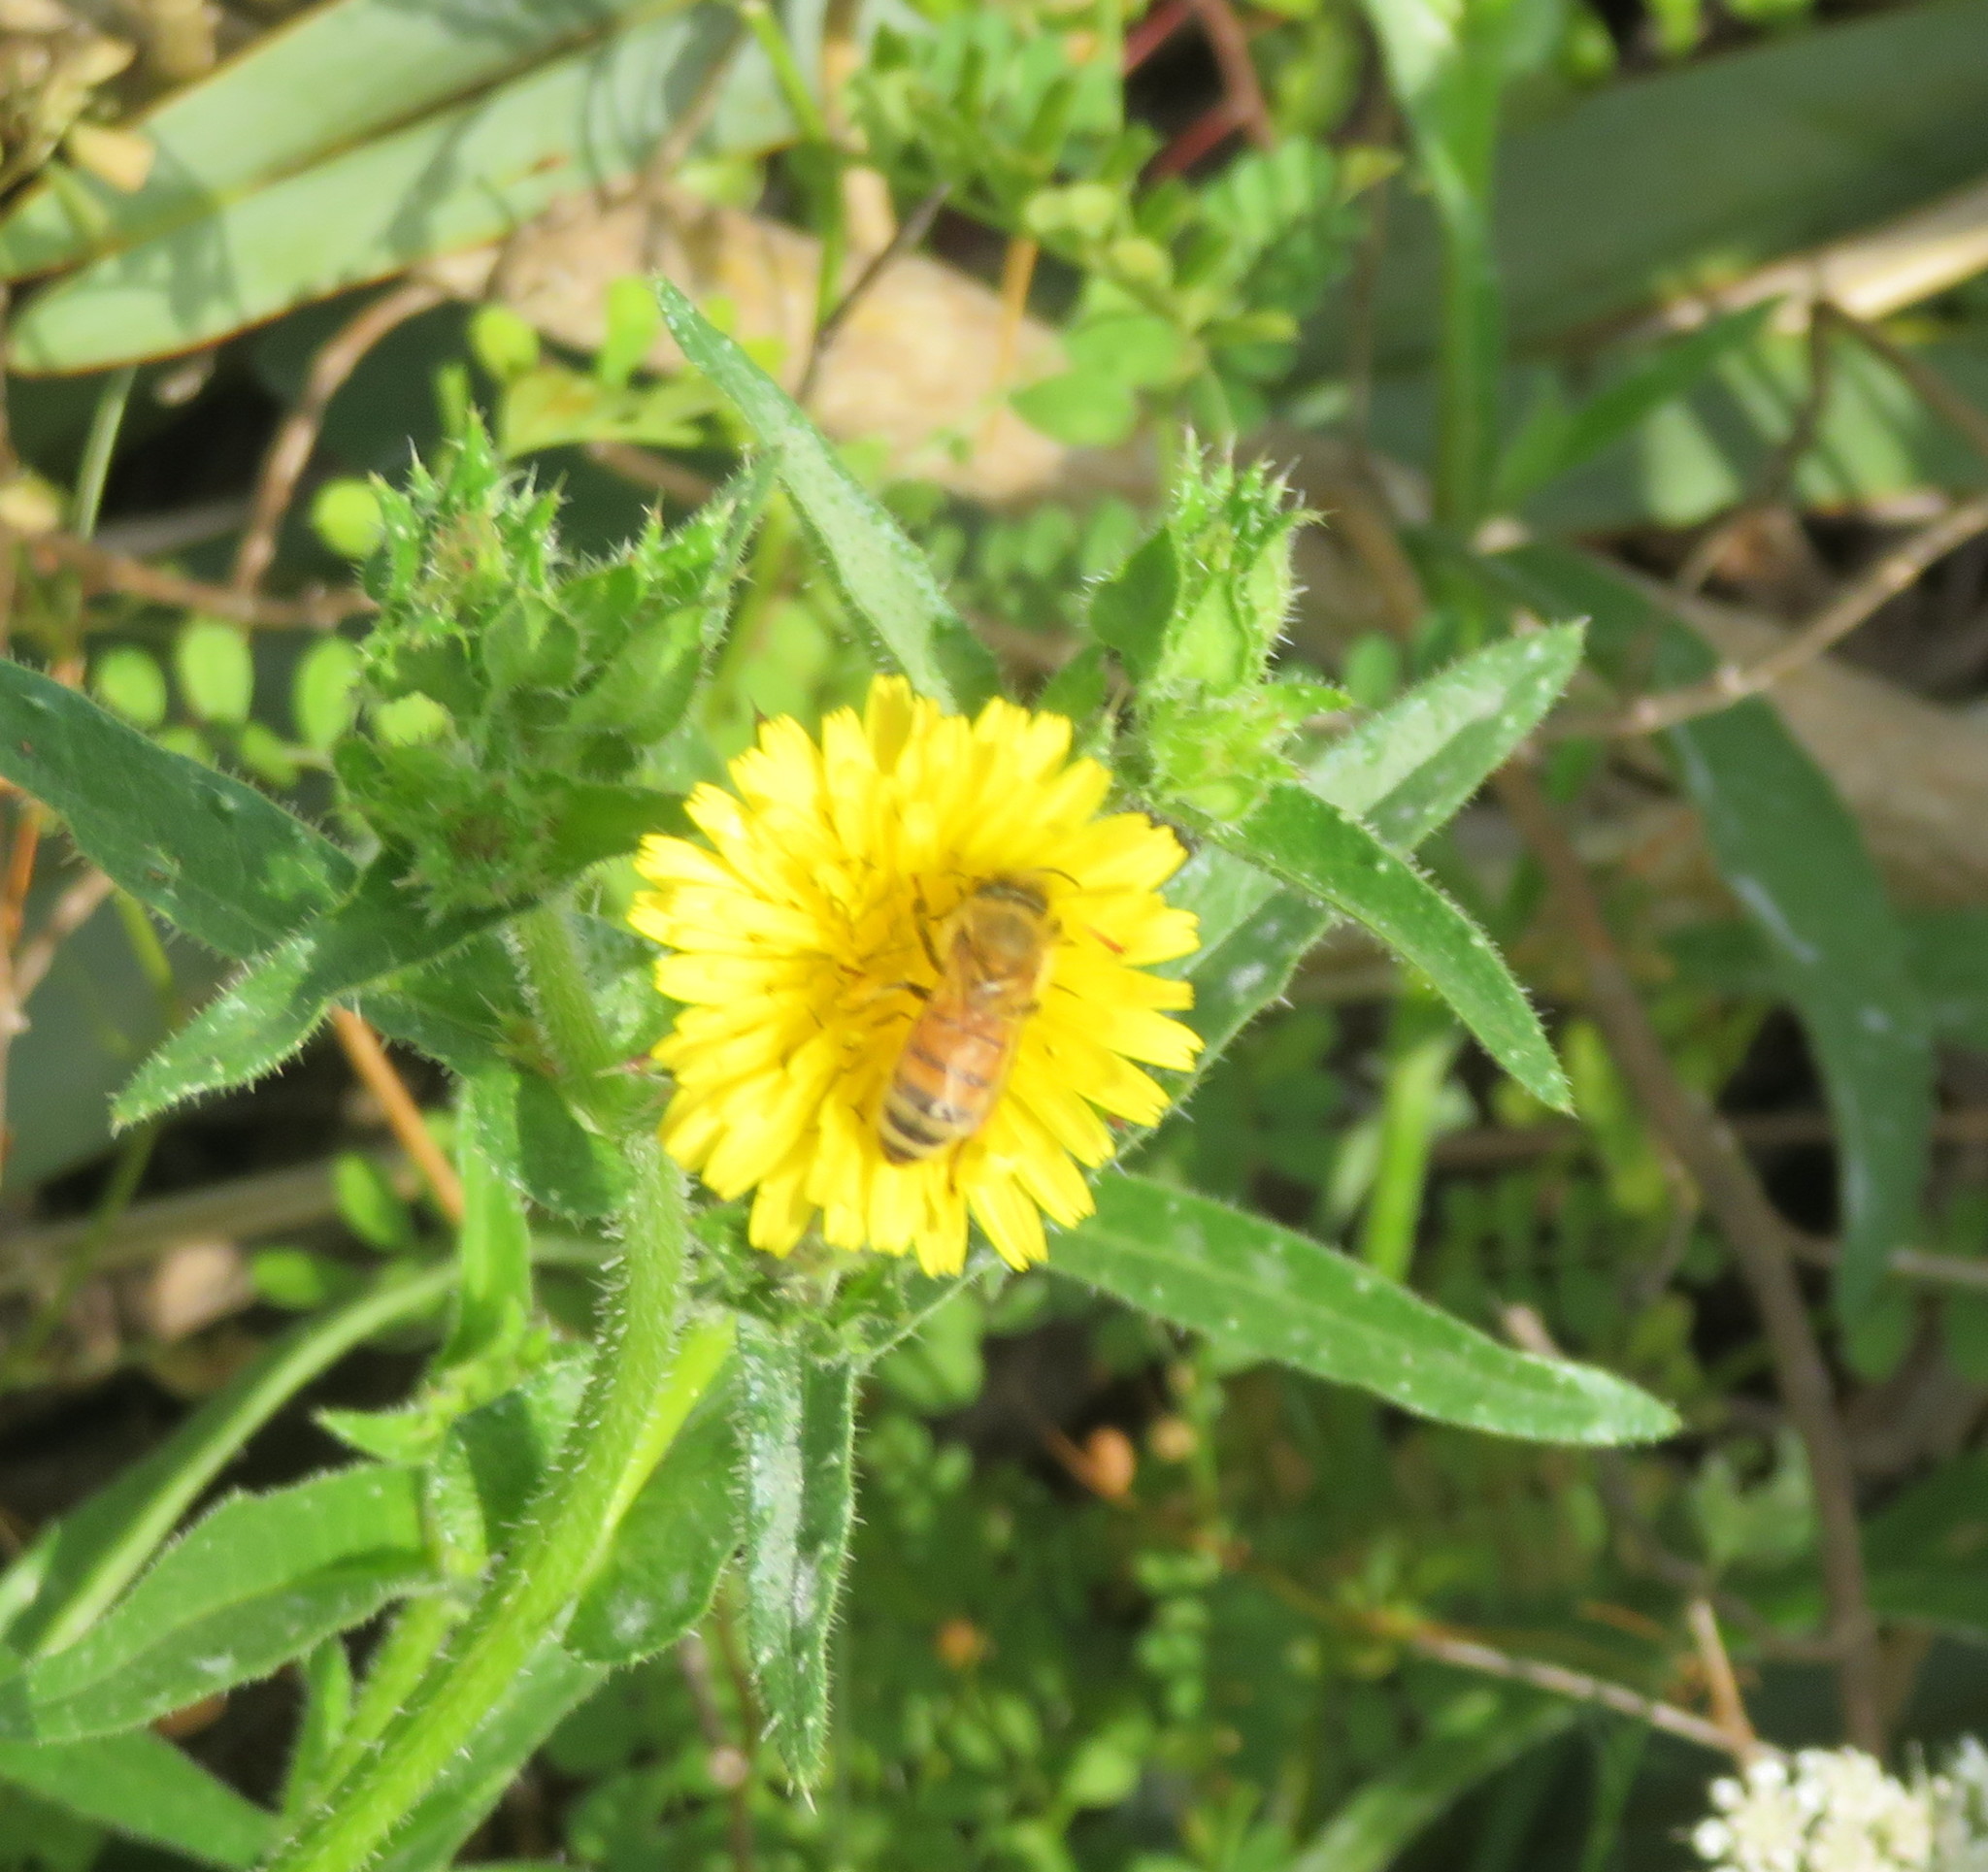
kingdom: Animalia
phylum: Arthropoda
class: Insecta
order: Hymenoptera
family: Apidae
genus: Apis
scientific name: Apis mellifera
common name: Honey bee
